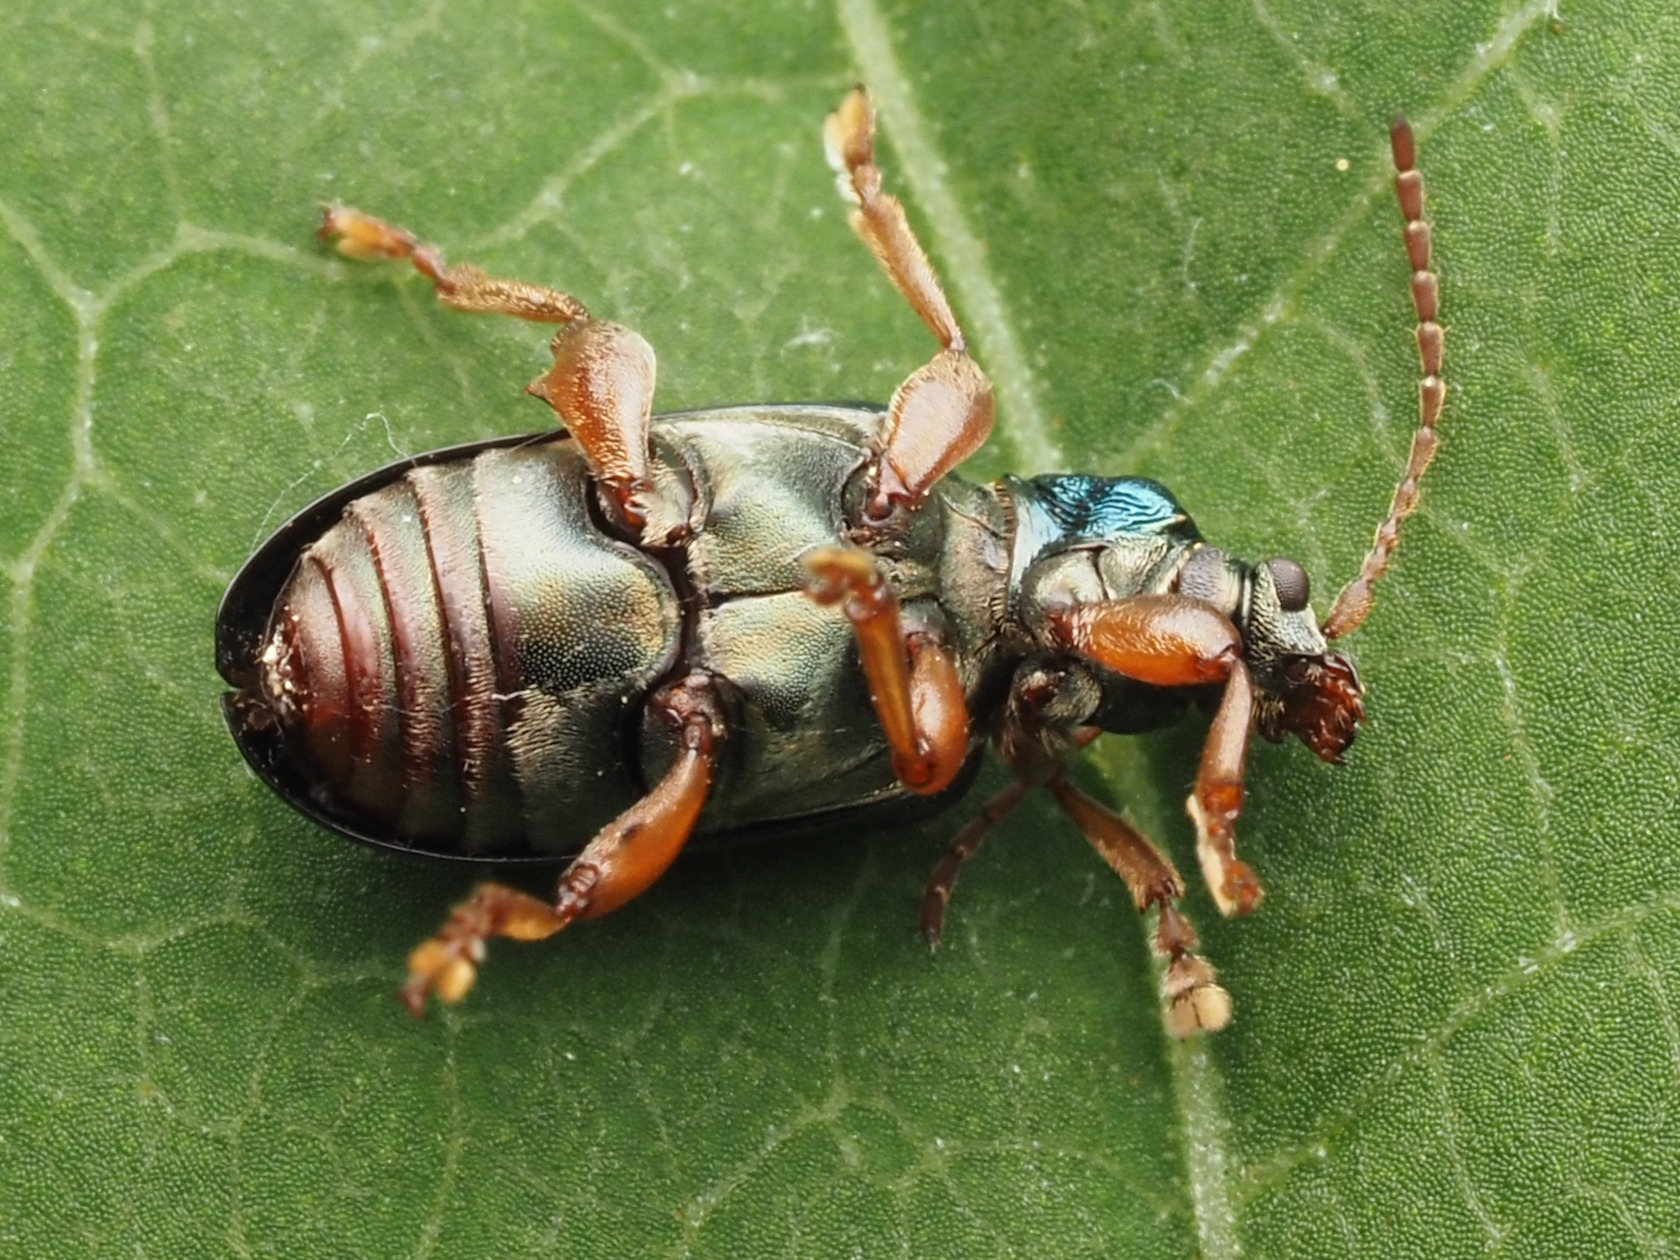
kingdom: Animalia
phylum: Arthropoda
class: Insecta
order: Coleoptera
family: Chrysomelidae
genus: Plateumaris
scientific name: Plateumaris rufa
